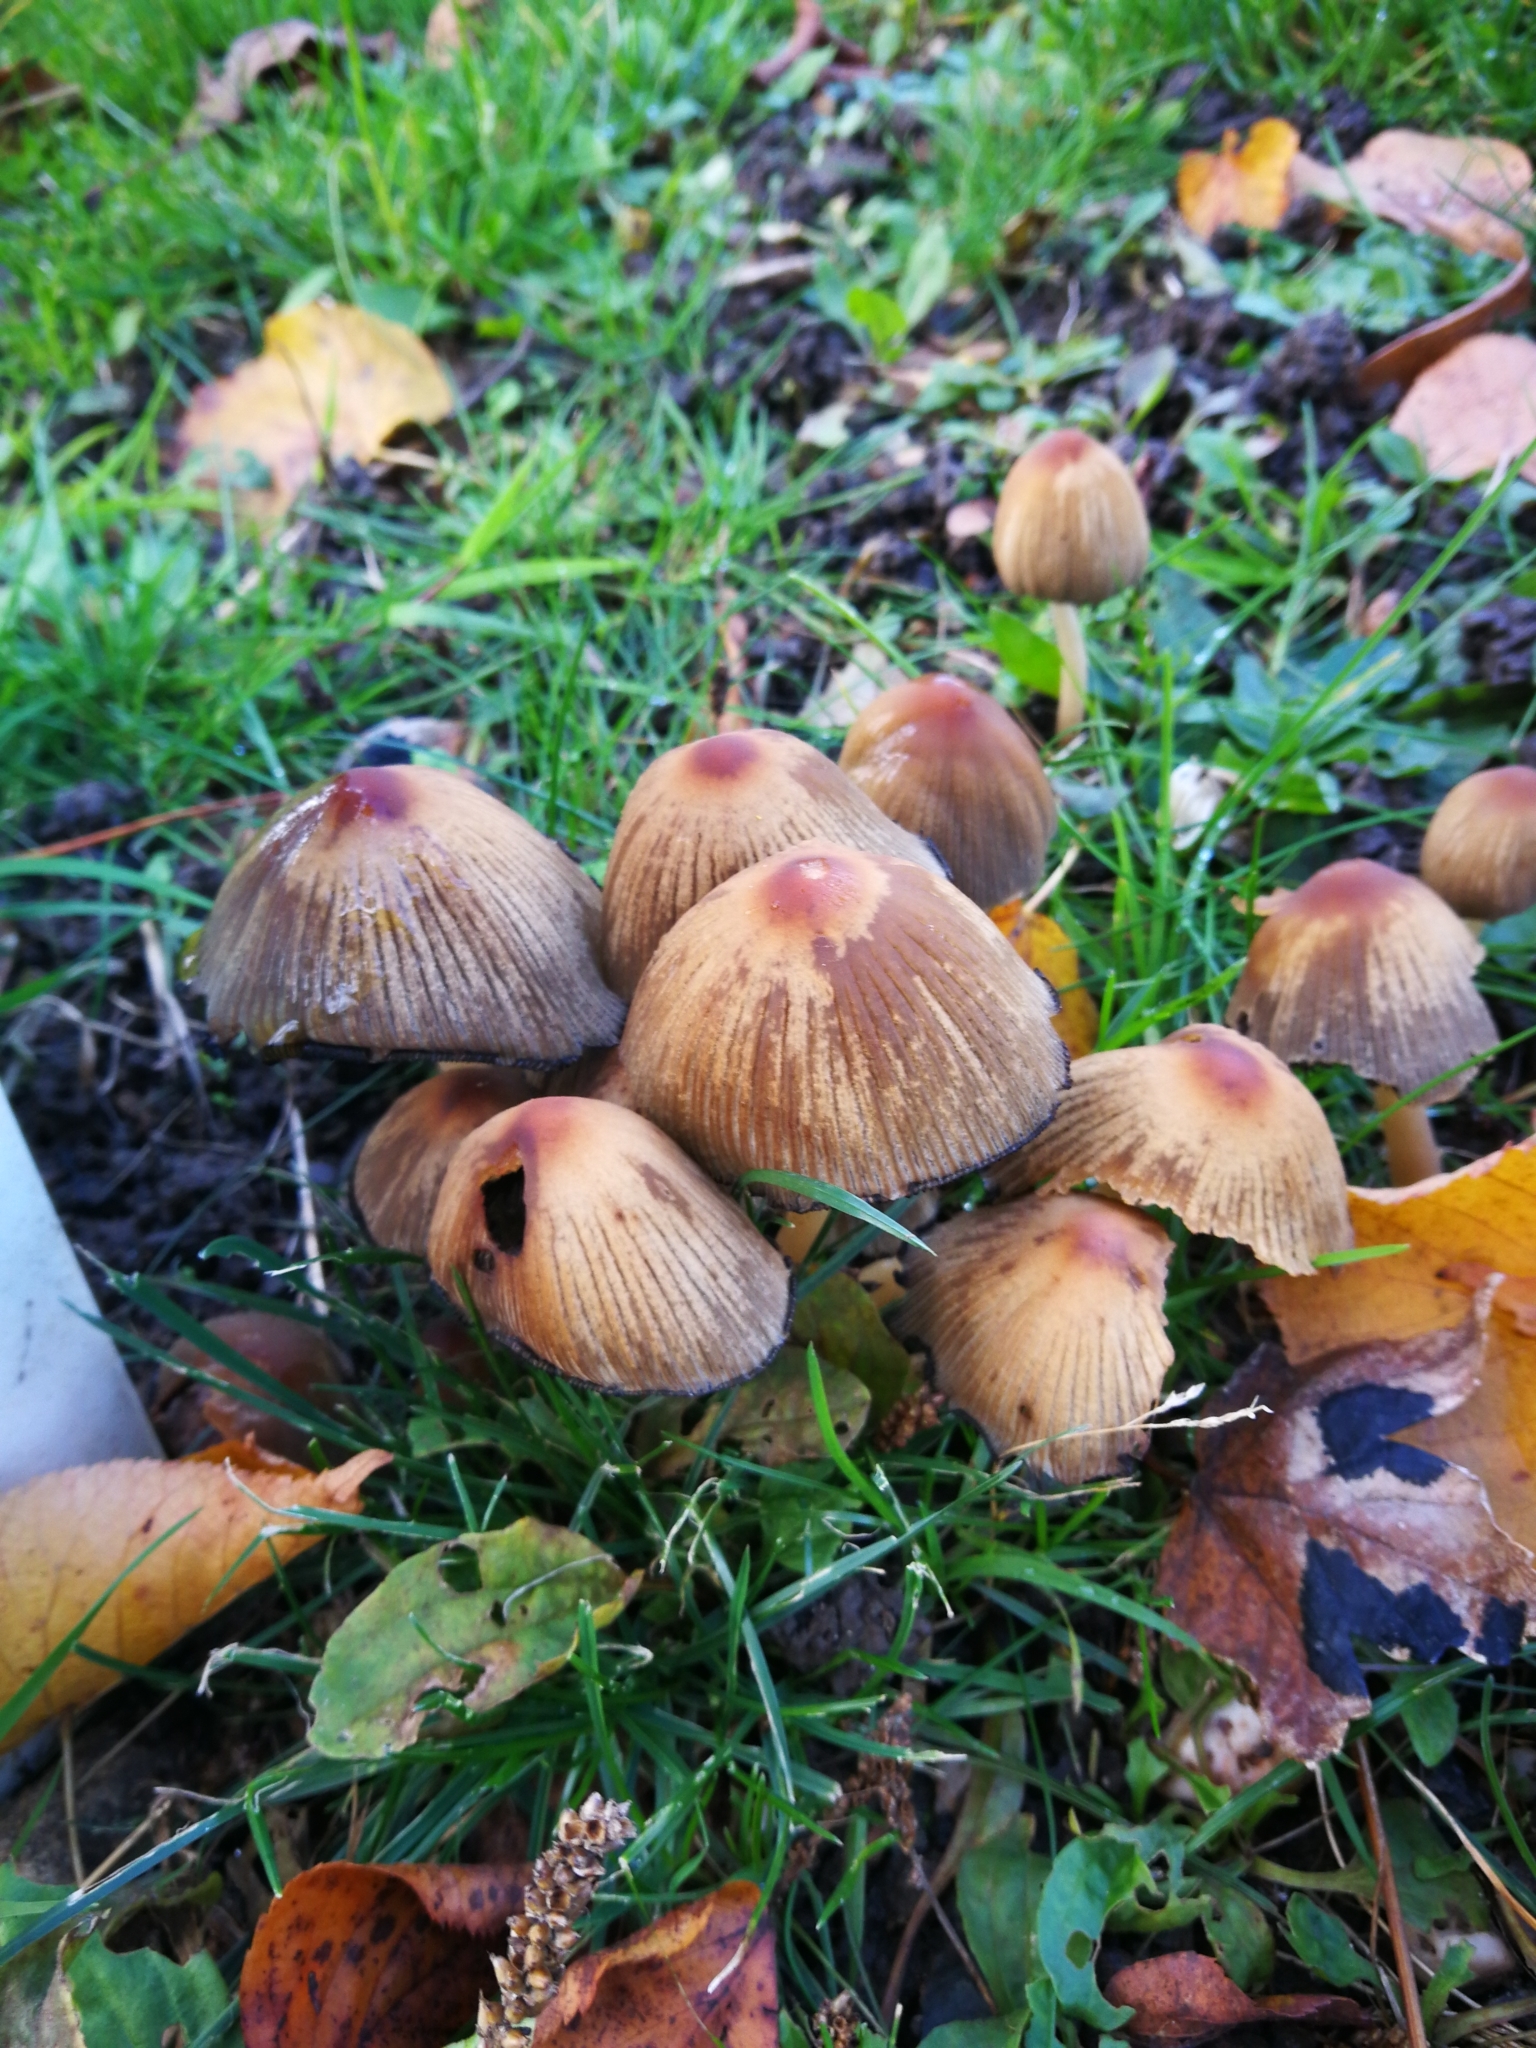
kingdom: Fungi
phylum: Basidiomycota
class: Agaricomycetes
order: Agaricales
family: Psathyrellaceae
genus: Coprinellus
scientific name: Coprinellus micaceus
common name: Glistening ink-cap
